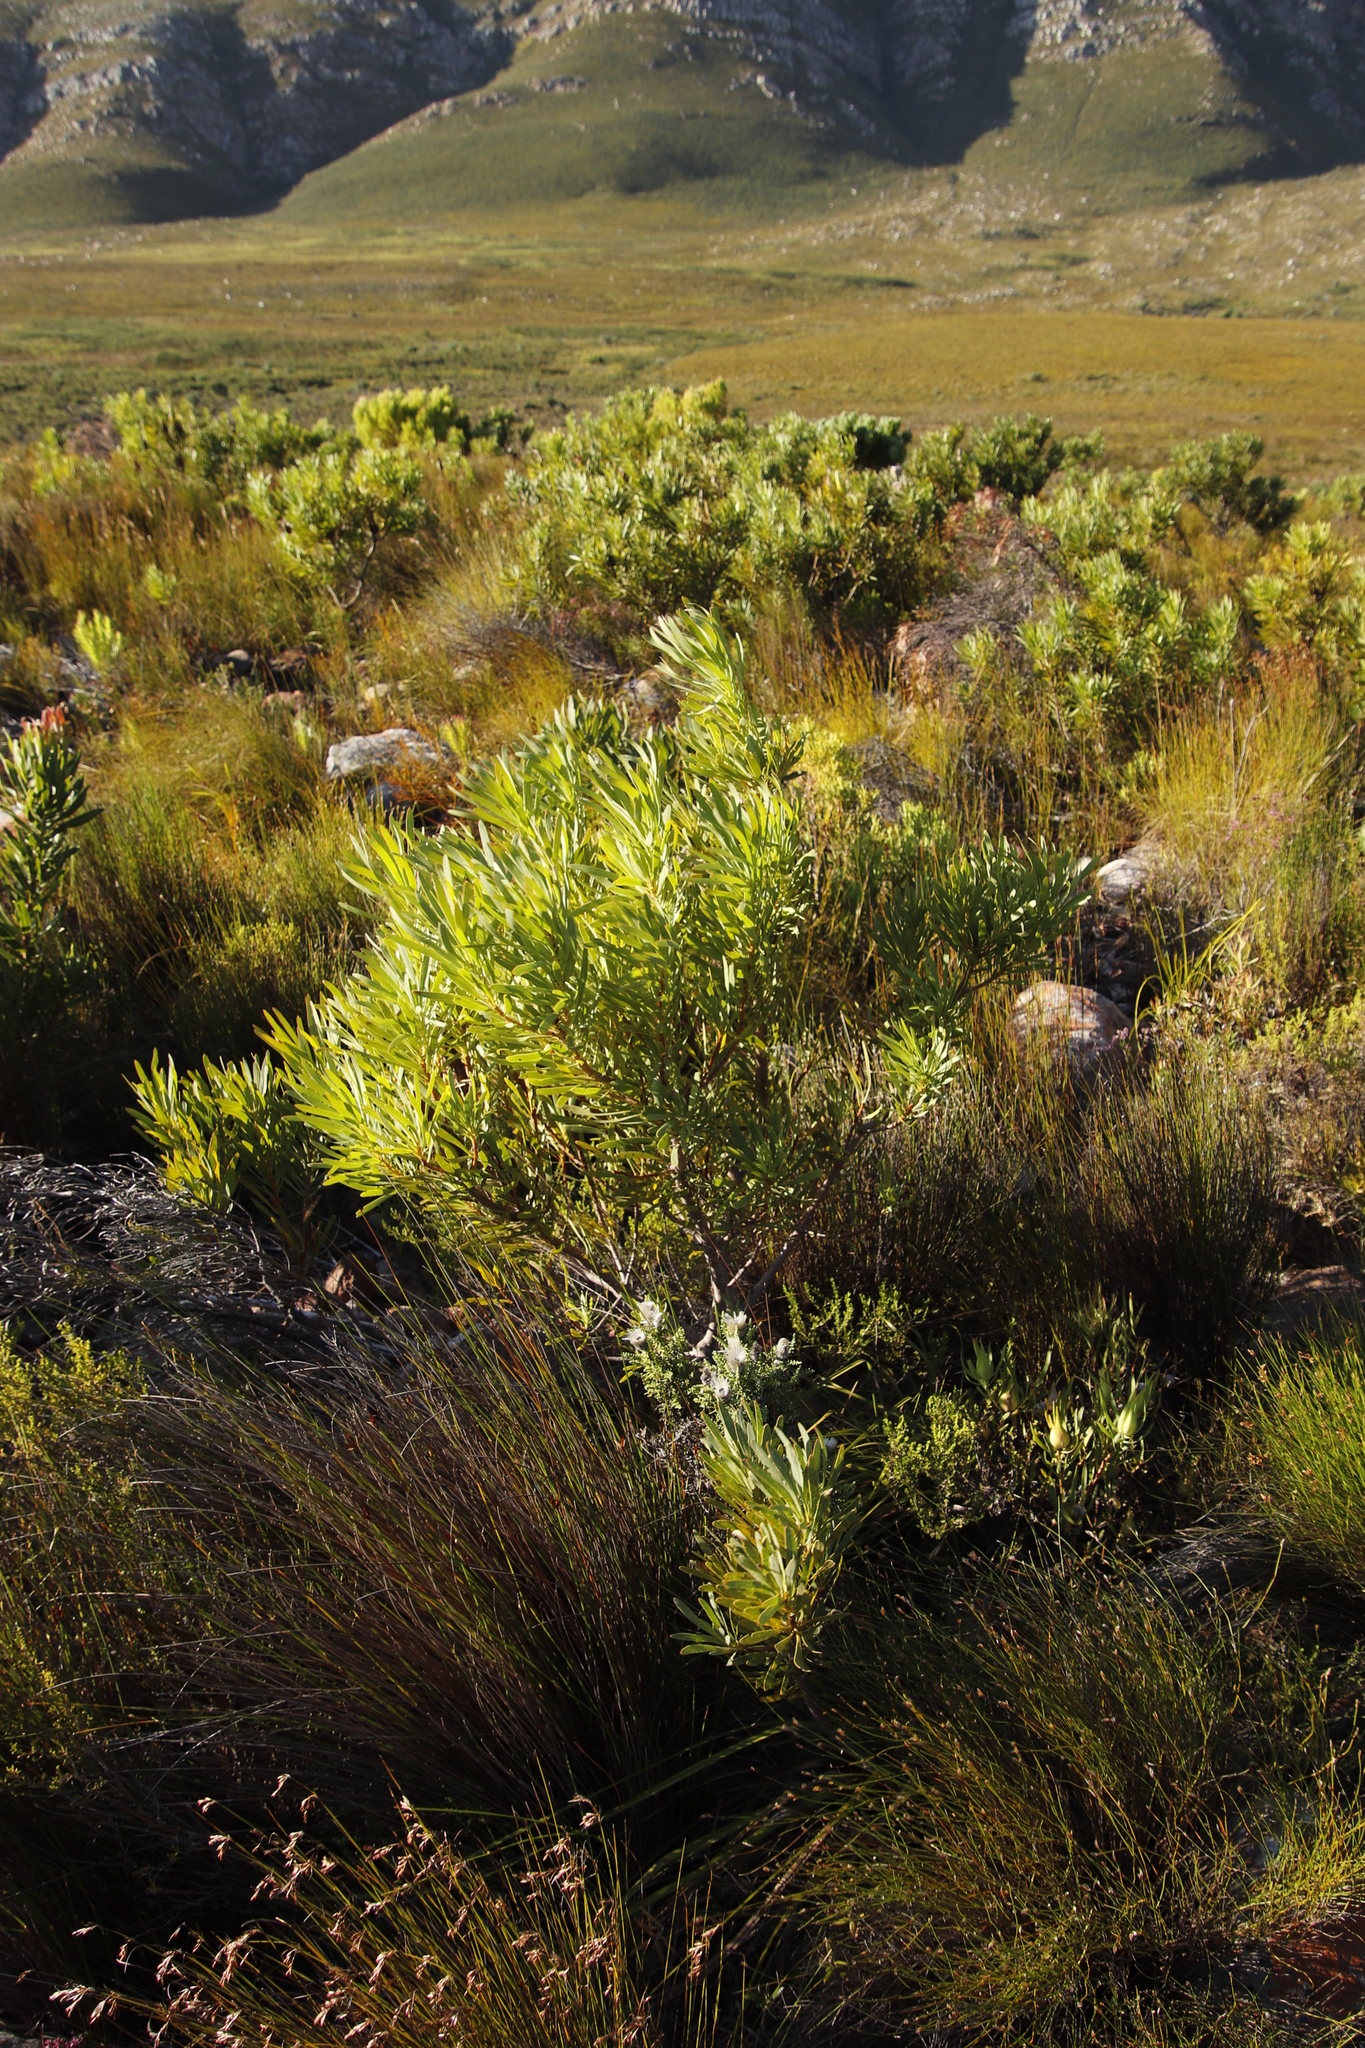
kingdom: Plantae
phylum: Tracheophyta
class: Magnoliopsida
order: Proteales
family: Proteaceae
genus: Leucadendron
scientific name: Leucadendron xanthoconus
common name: Sickle-leaf conebush
